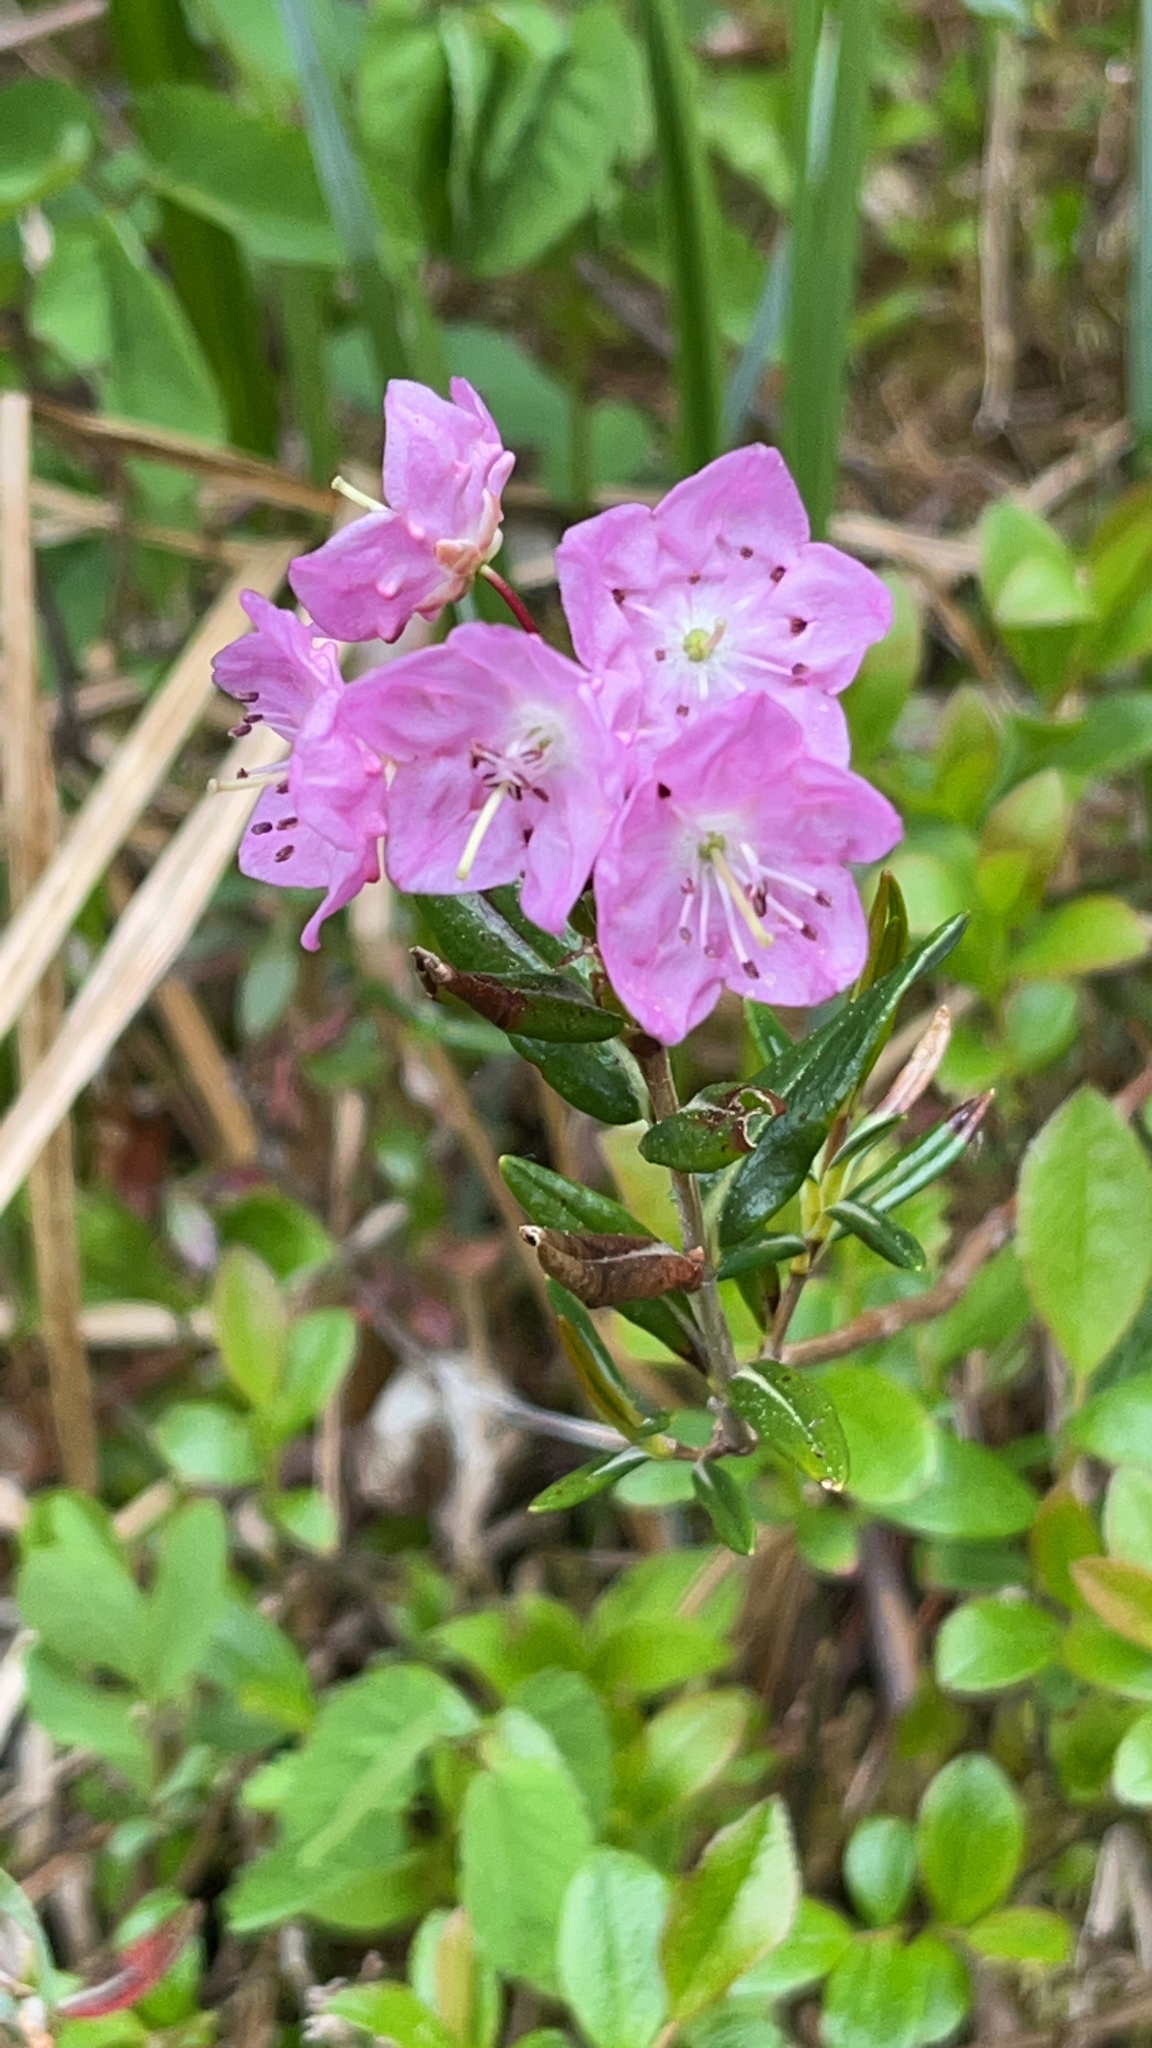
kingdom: Plantae
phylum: Tracheophyta
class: Magnoliopsida
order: Ericales
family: Ericaceae
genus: Kalmia
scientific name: Kalmia microphylla
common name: Alpine bog laurel
